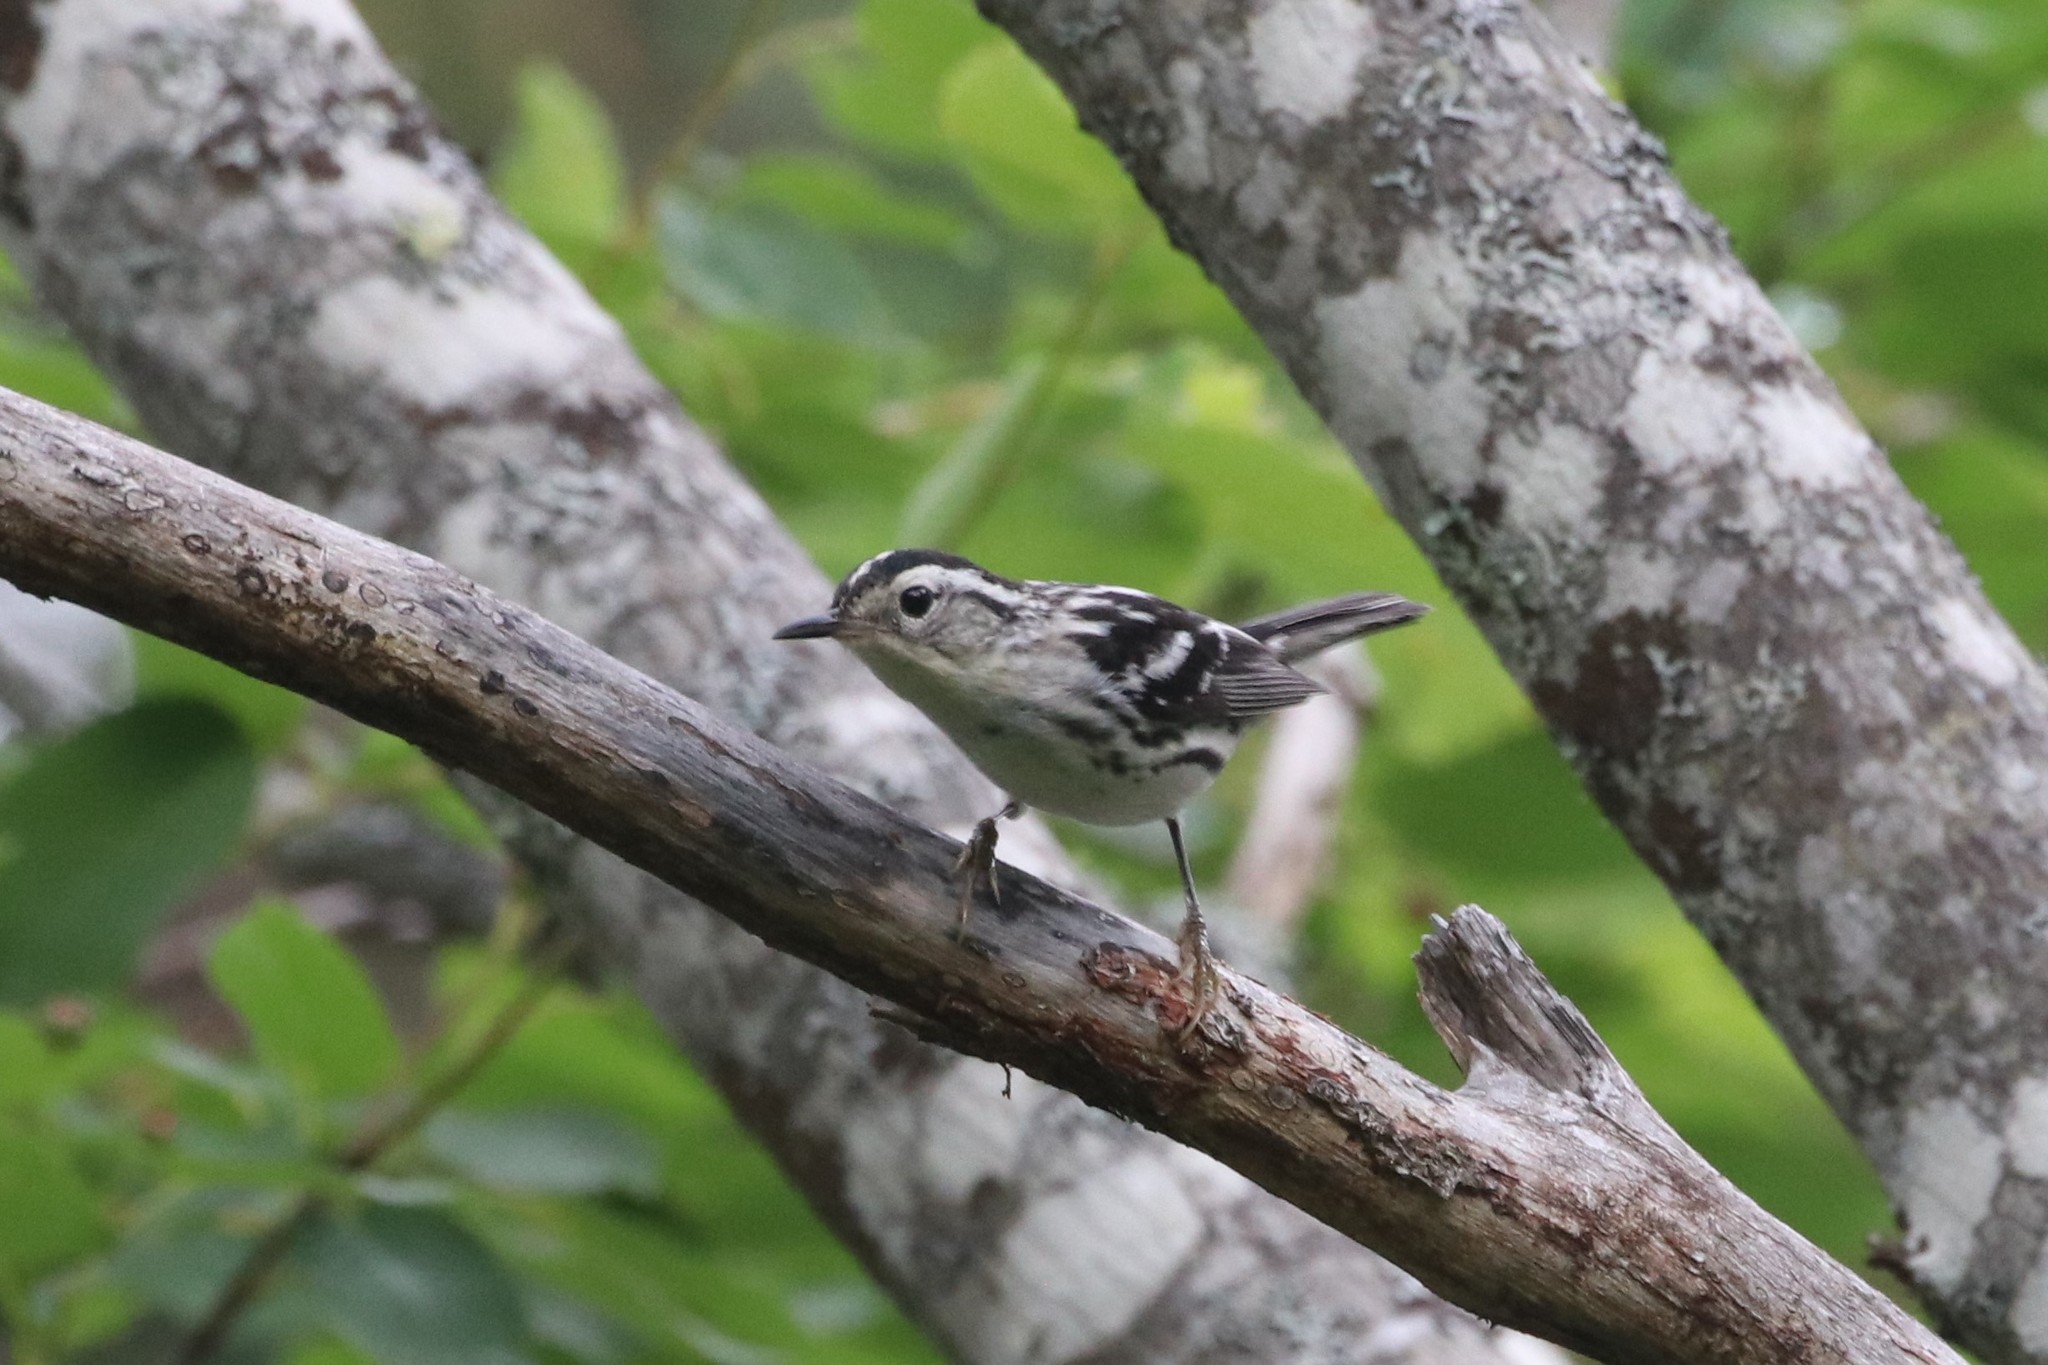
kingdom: Animalia
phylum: Chordata
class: Aves
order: Passeriformes
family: Parulidae
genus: Mniotilta
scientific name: Mniotilta varia
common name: Black-and-white warbler
